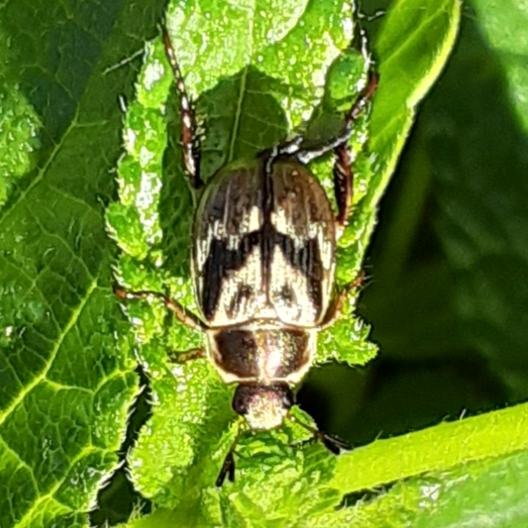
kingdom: Animalia
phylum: Arthropoda
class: Insecta
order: Coleoptera
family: Scarabaeidae
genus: Exomala
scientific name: Exomala orientalis
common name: Oriental beetle
